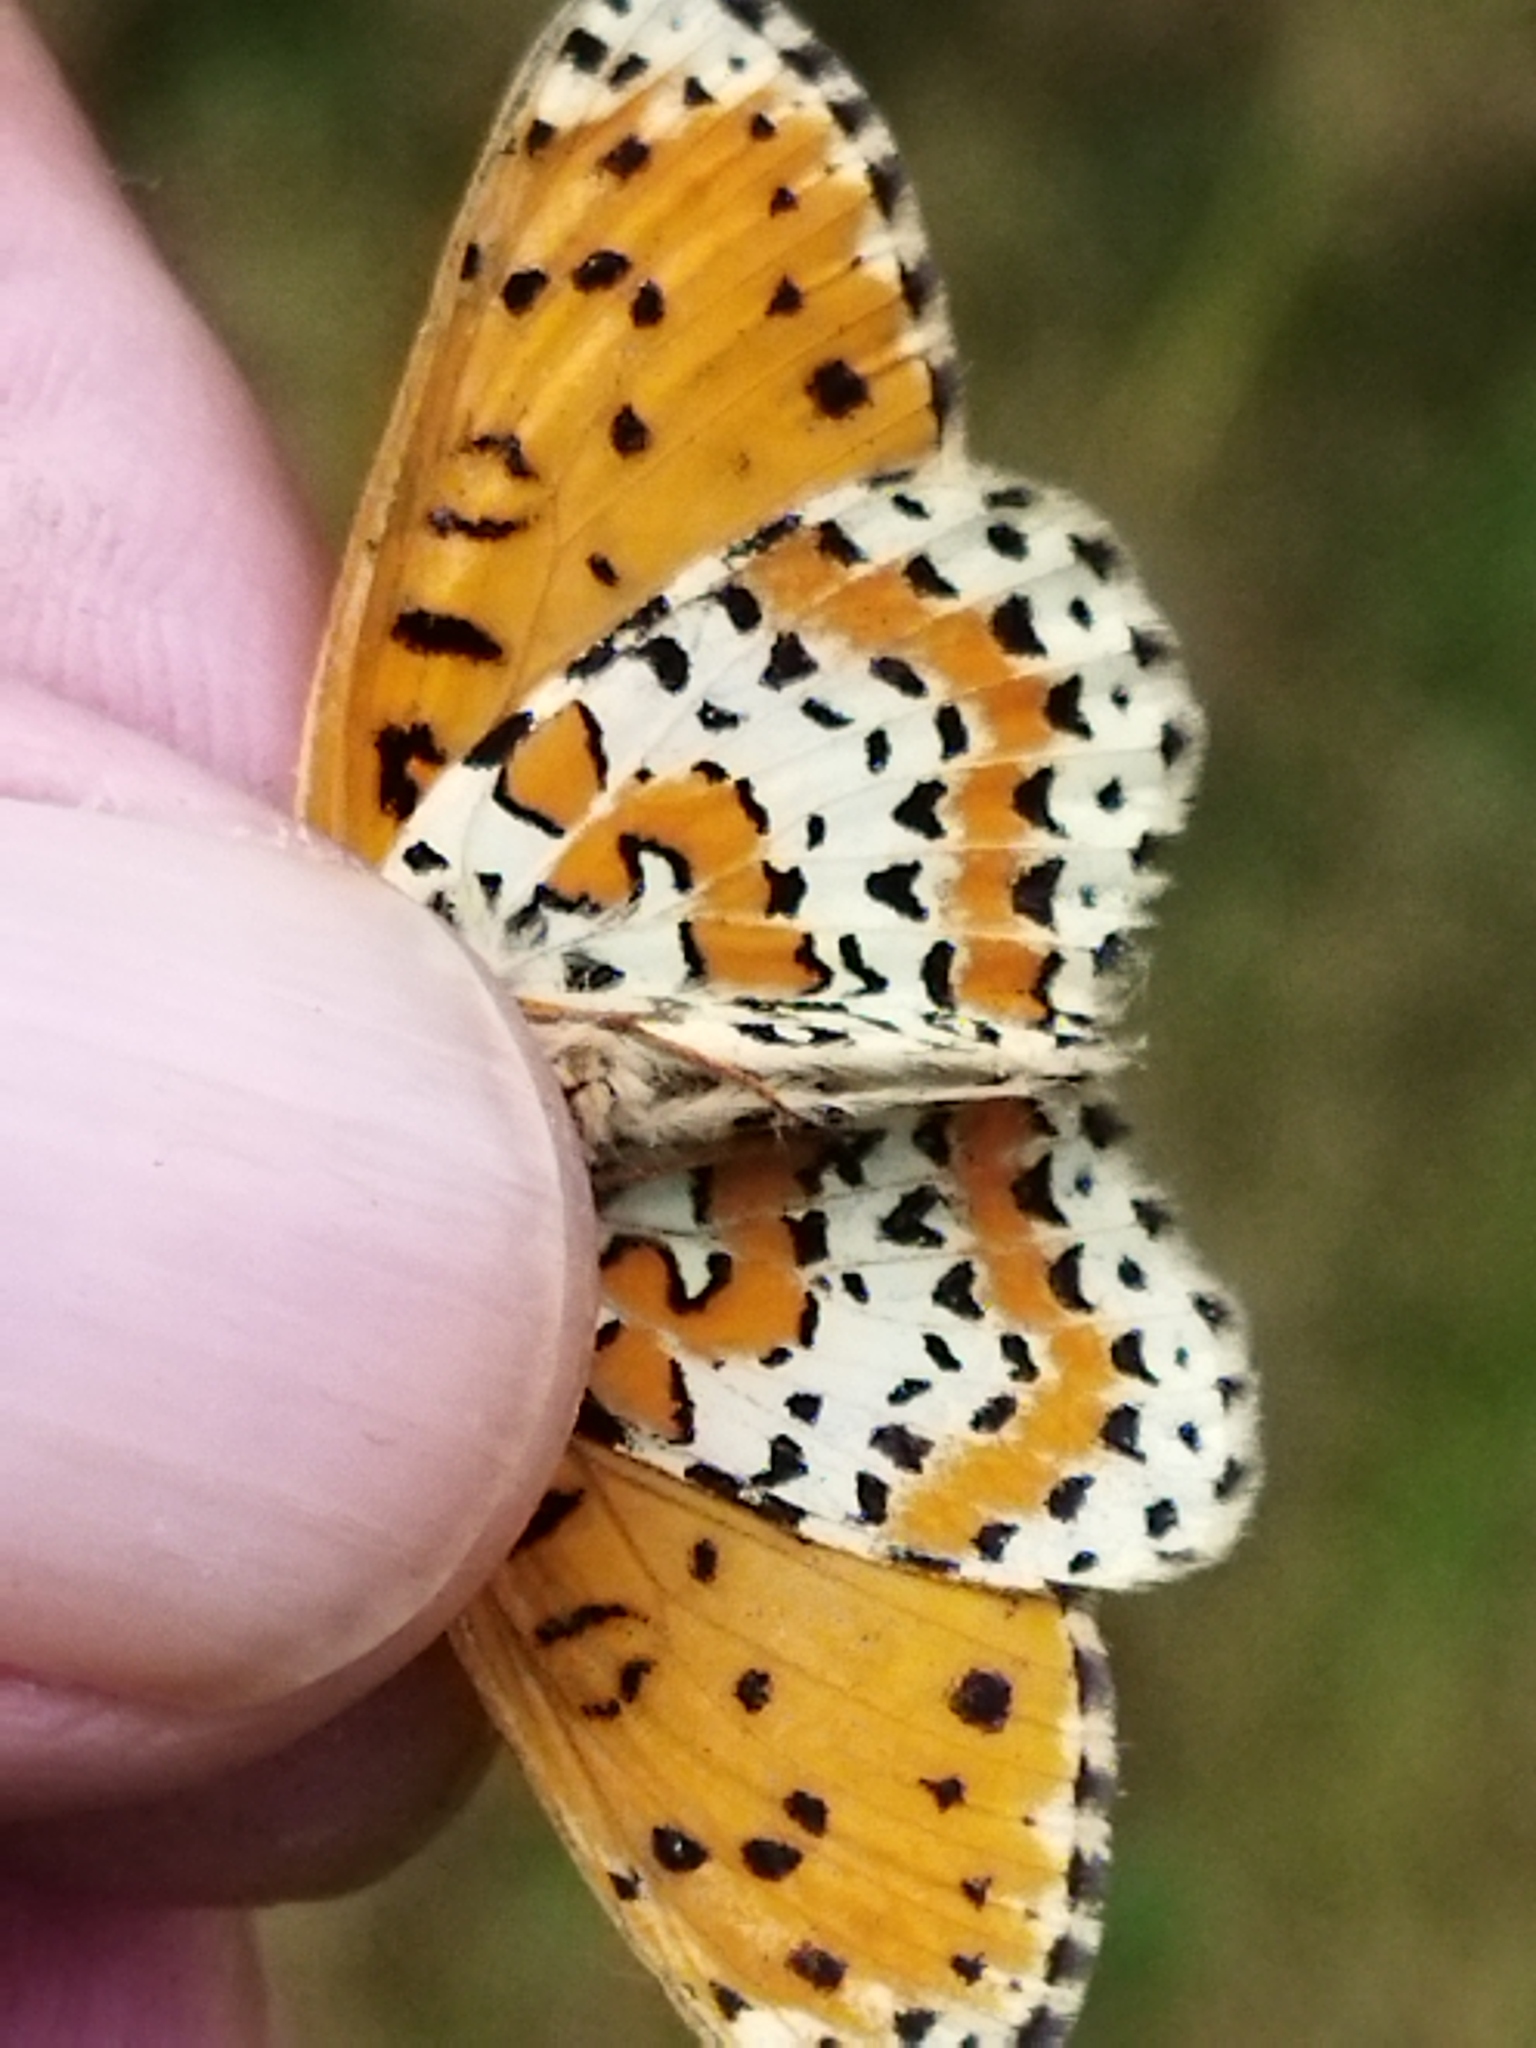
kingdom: Animalia
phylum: Arthropoda
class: Insecta
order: Lepidoptera
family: Nymphalidae
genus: Melitaea
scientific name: Melitaea trivia
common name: Lesser spotted fritillary
